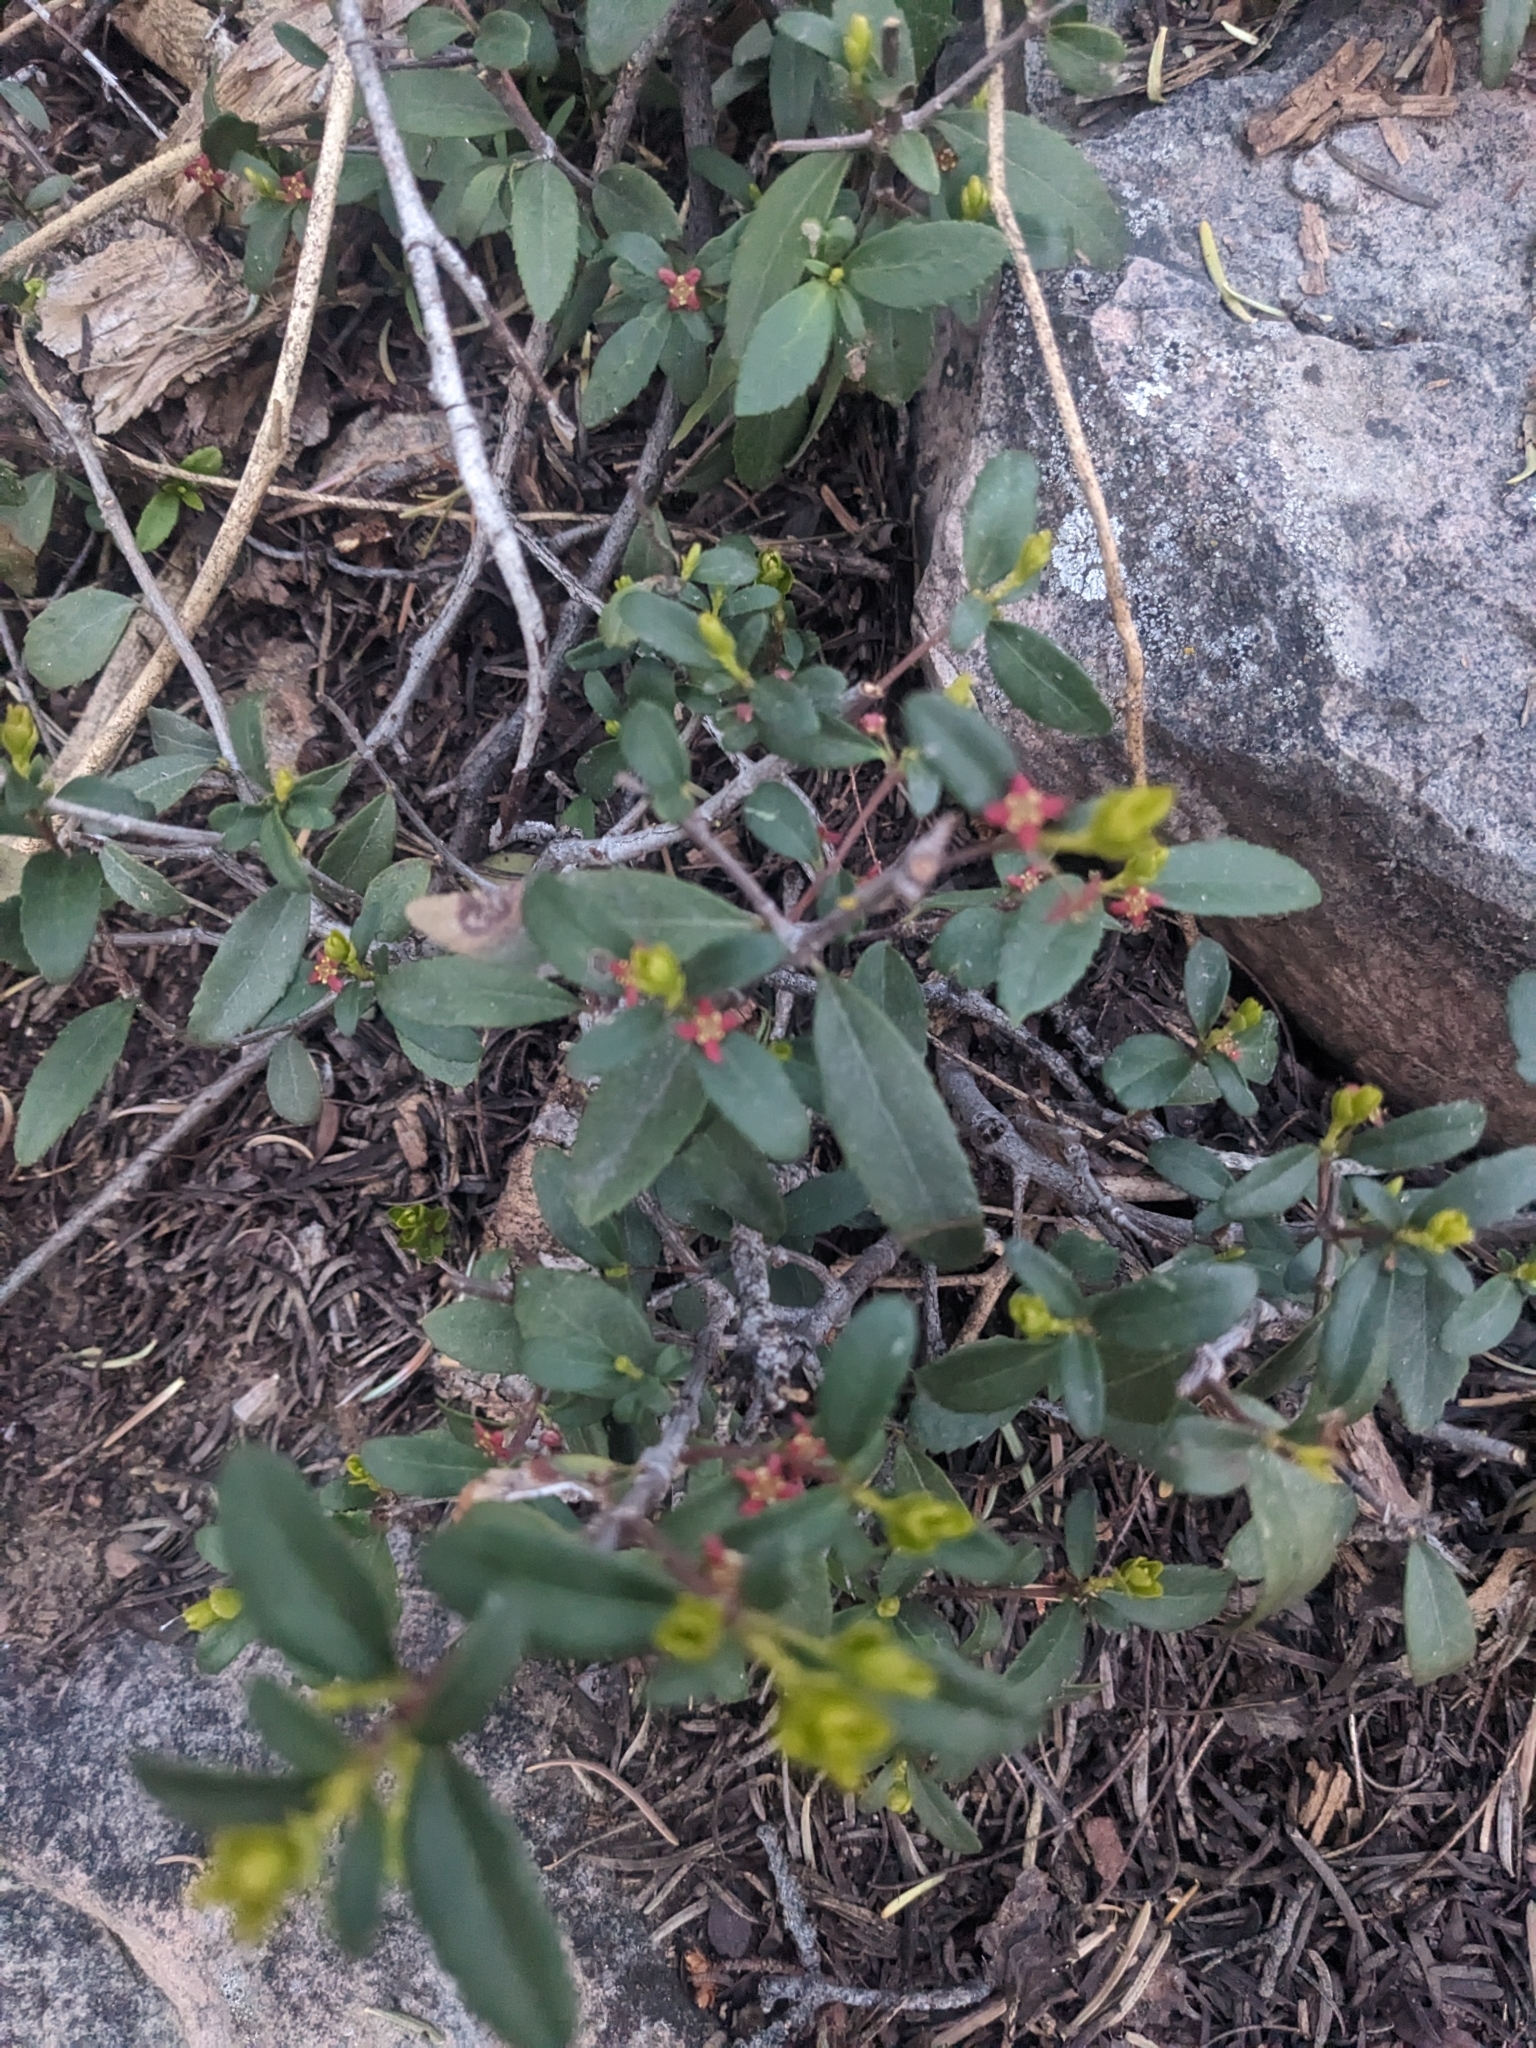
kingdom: Plantae
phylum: Tracheophyta
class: Magnoliopsida
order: Celastrales
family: Celastraceae
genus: Paxistima
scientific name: Paxistima myrsinites
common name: Mountain-lover
